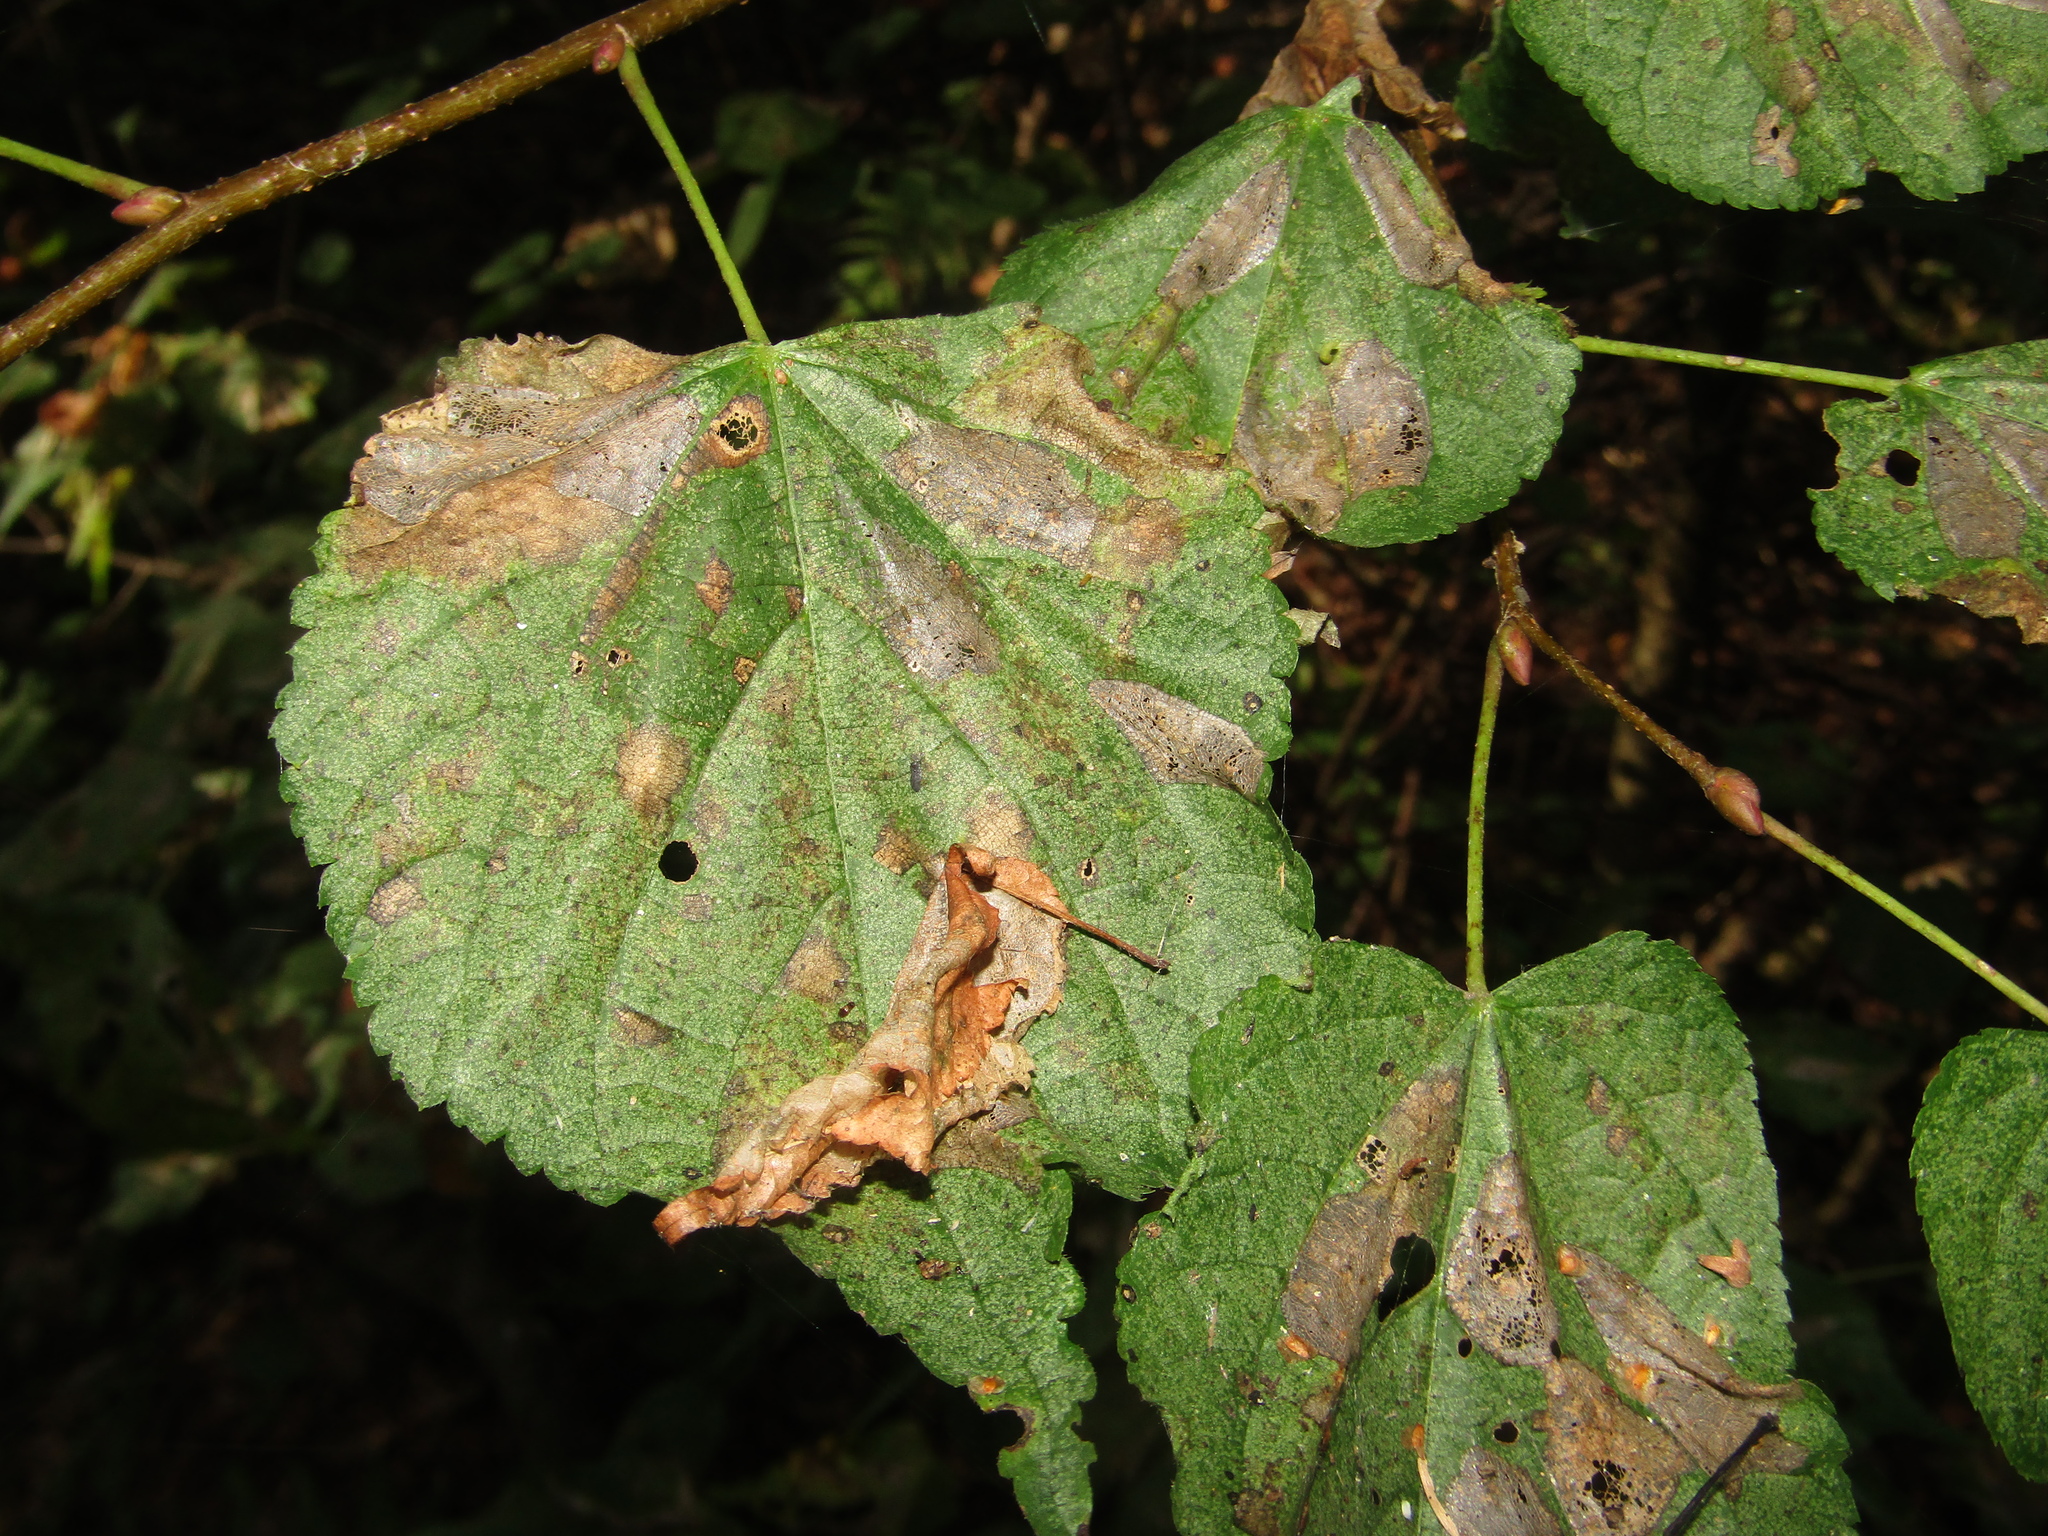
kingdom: Plantae
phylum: Tracheophyta
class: Magnoliopsida
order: Malvales
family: Malvaceae
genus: Tilia
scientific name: Tilia cordata
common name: Small-leaved lime
